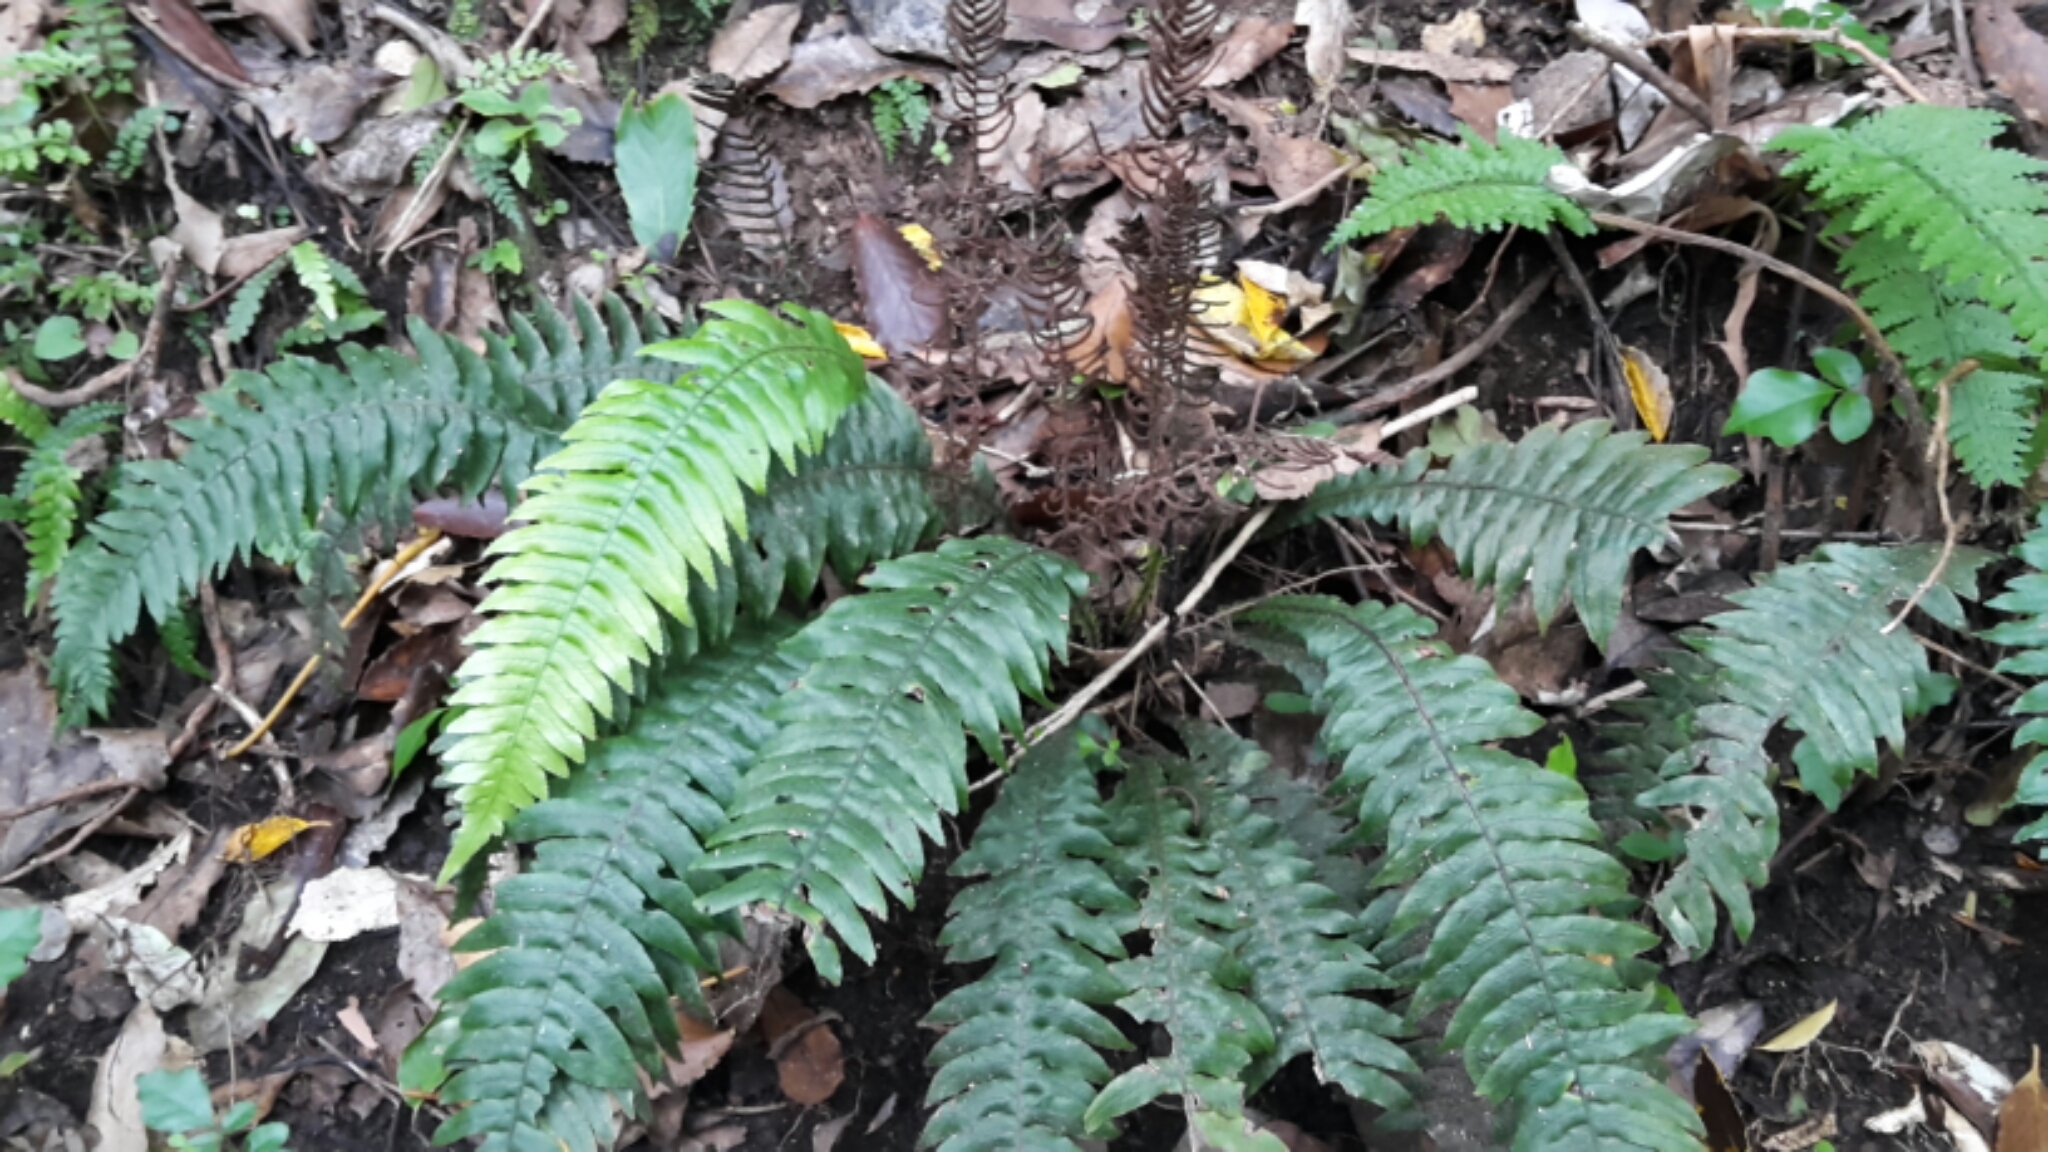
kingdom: Plantae
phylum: Tracheophyta
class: Polypodiopsida
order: Polypodiales
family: Blechnaceae
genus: Austroblechnum
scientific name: Austroblechnum lanceolatum
